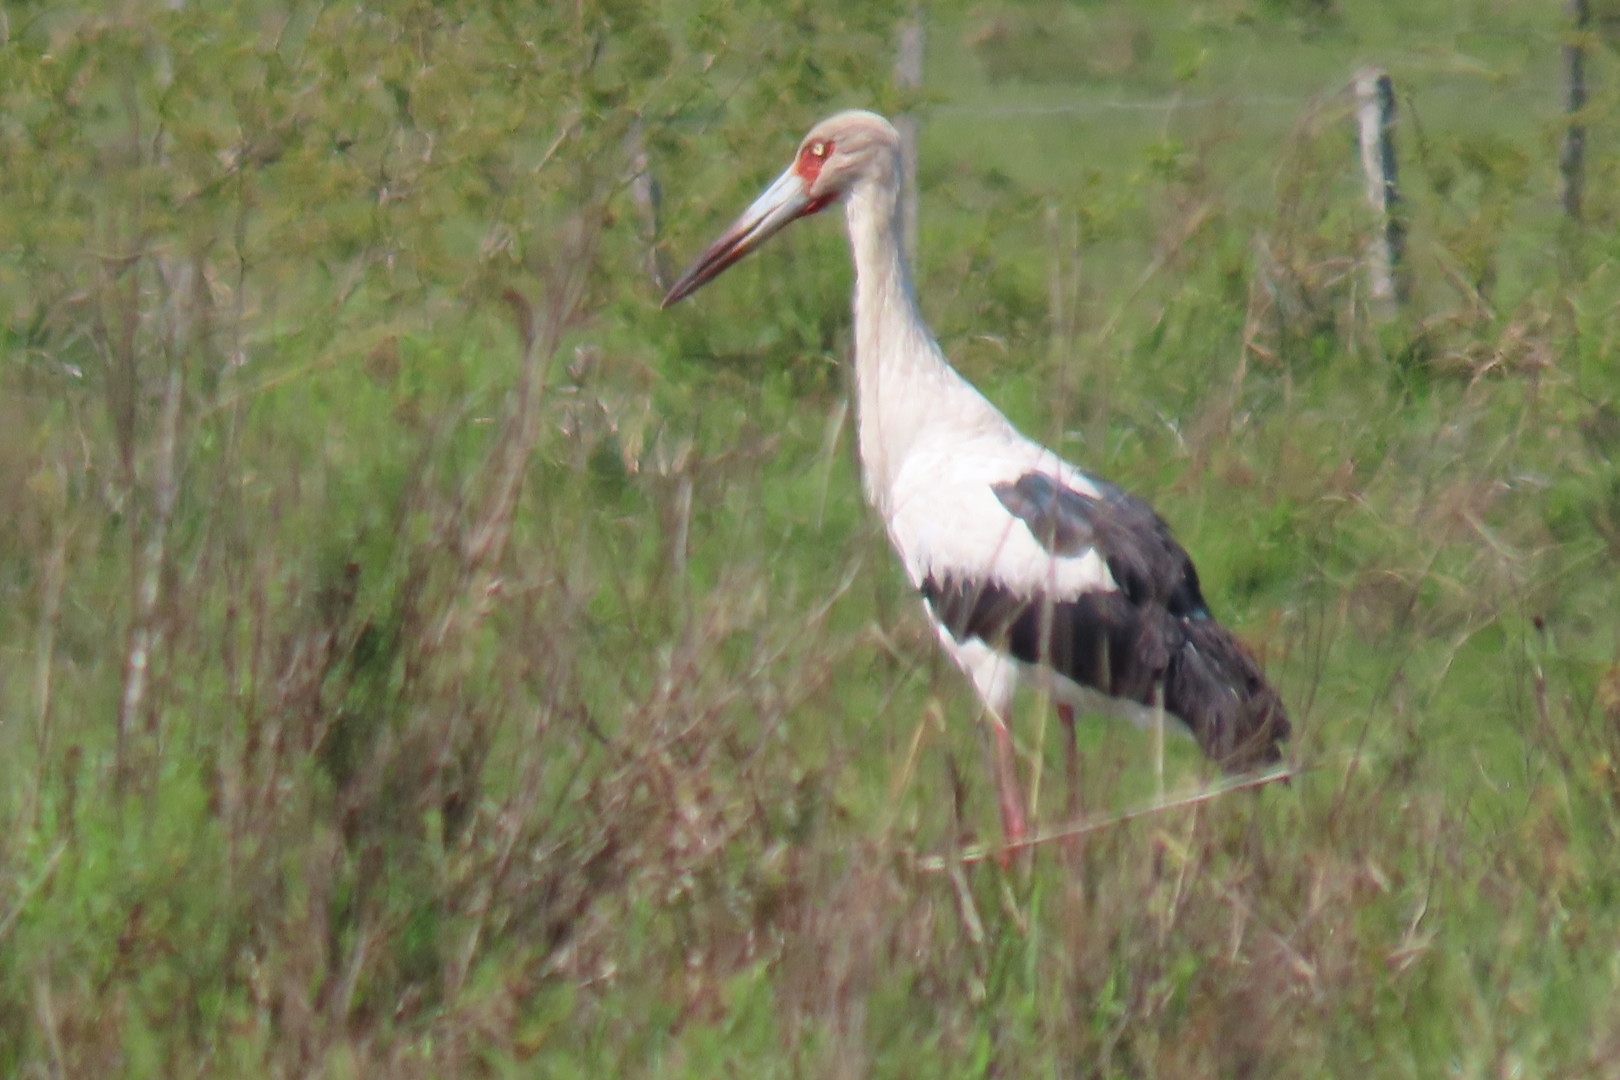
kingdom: Animalia
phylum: Chordata
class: Aves
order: Ciconiiformes
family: Ciconiidae
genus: Ciconia
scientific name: Ciconia maguari
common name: Maguari stork
